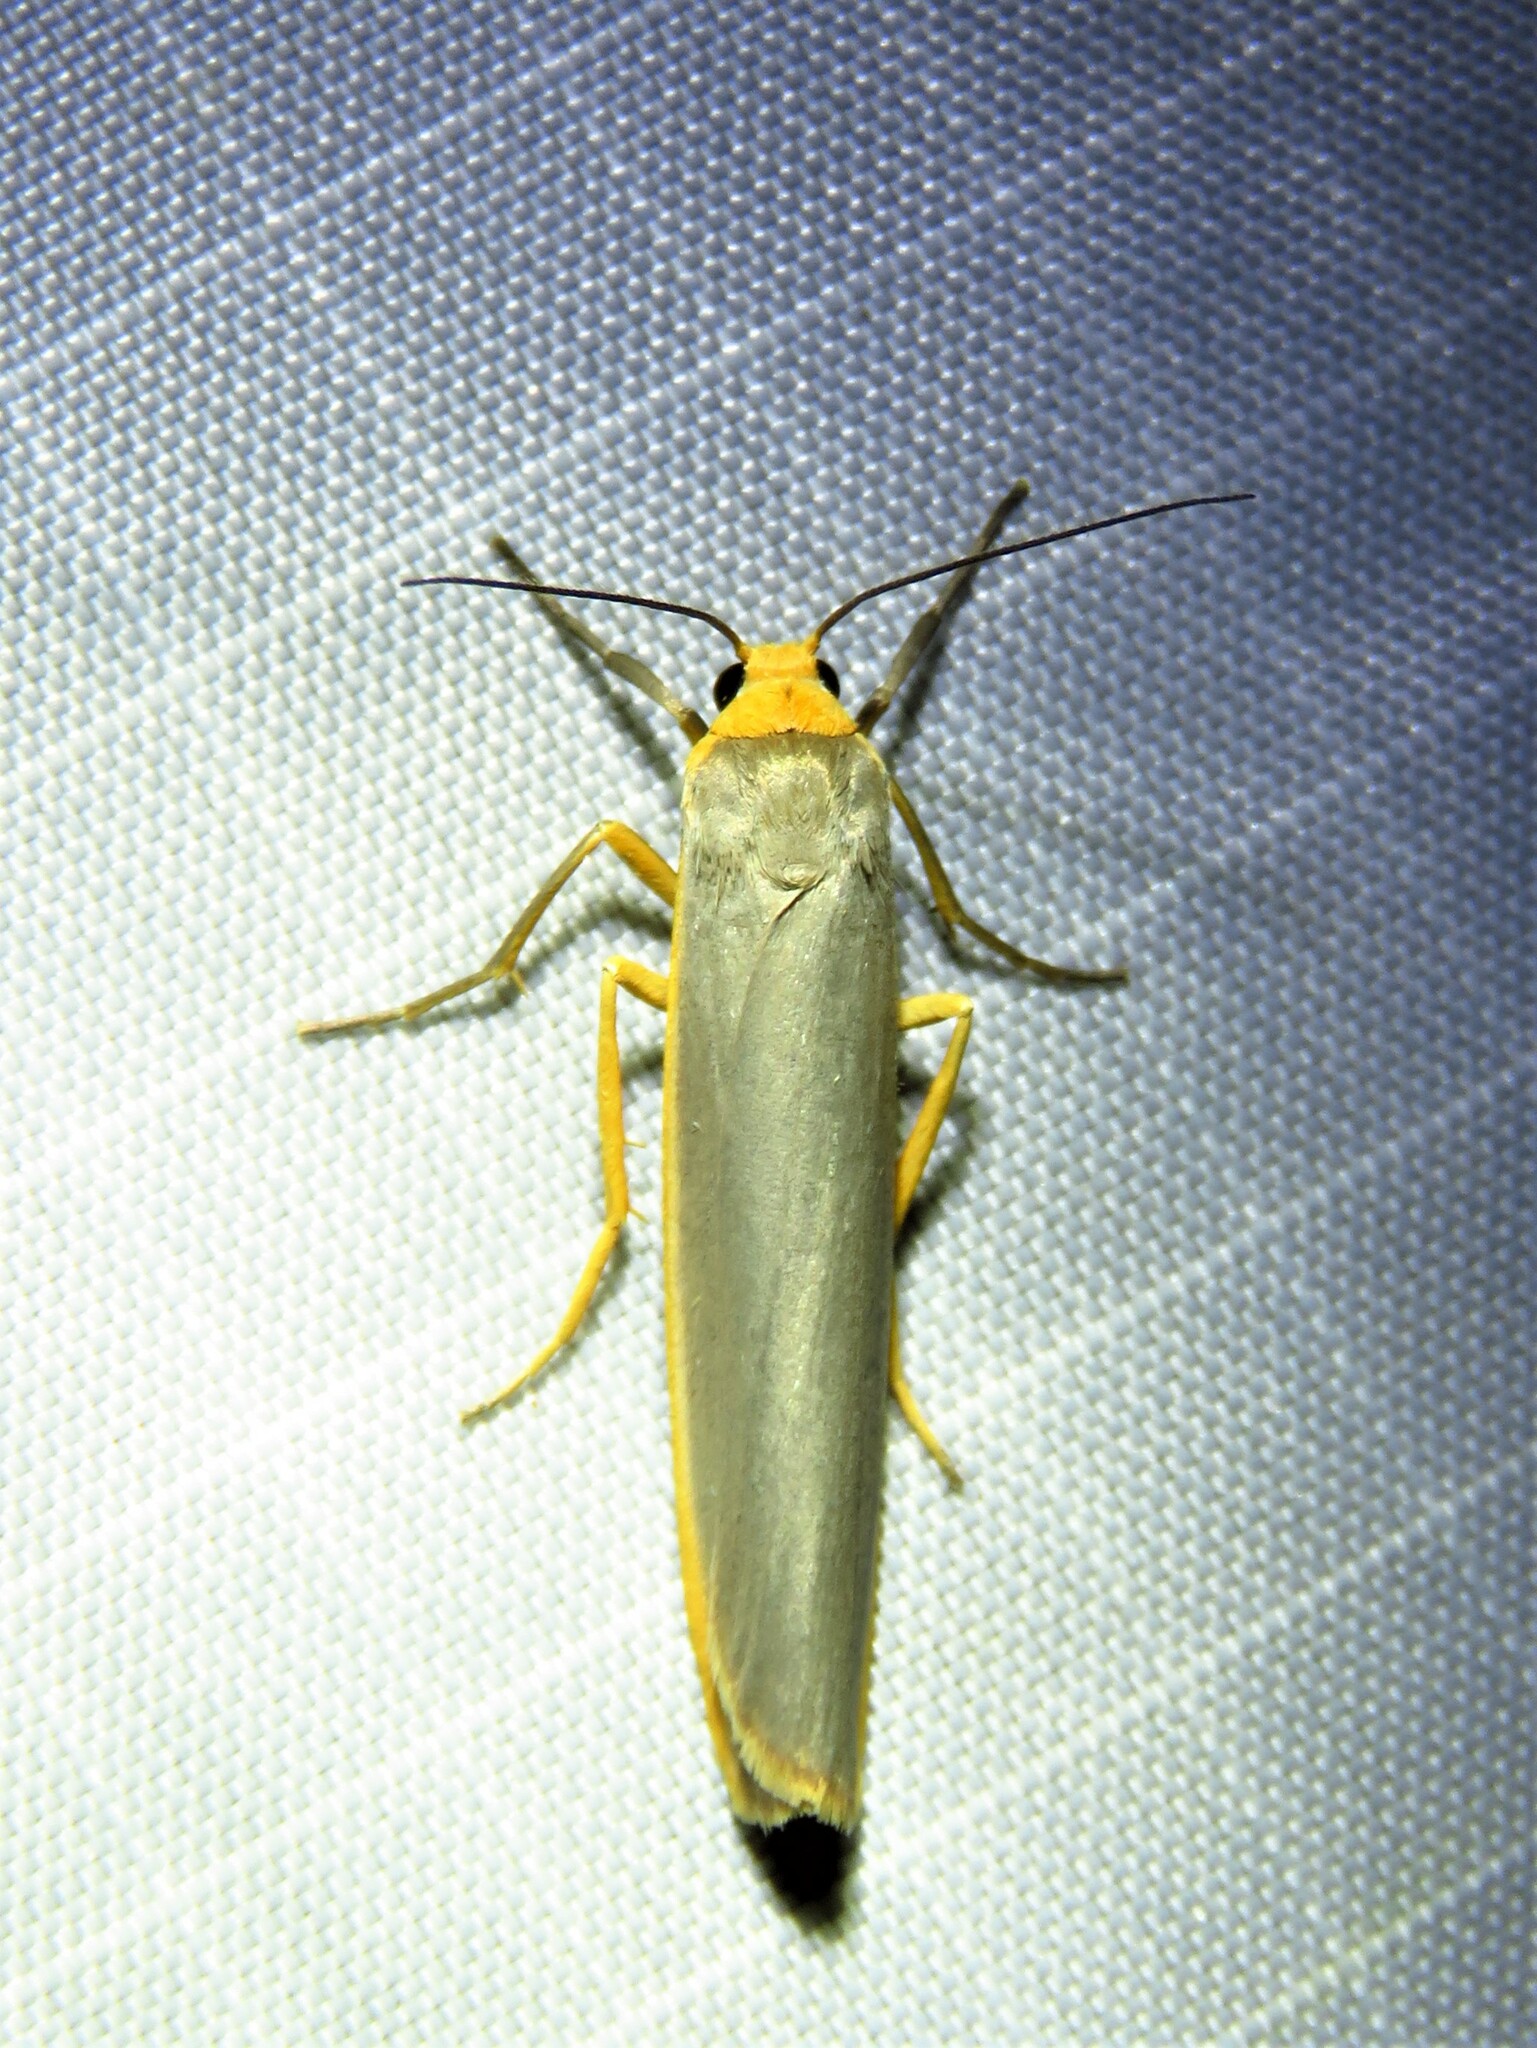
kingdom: Animalia
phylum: Arthropoda
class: Insecta
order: Lepidoptera
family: Erebidae
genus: Manulea
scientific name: Manulea complana
